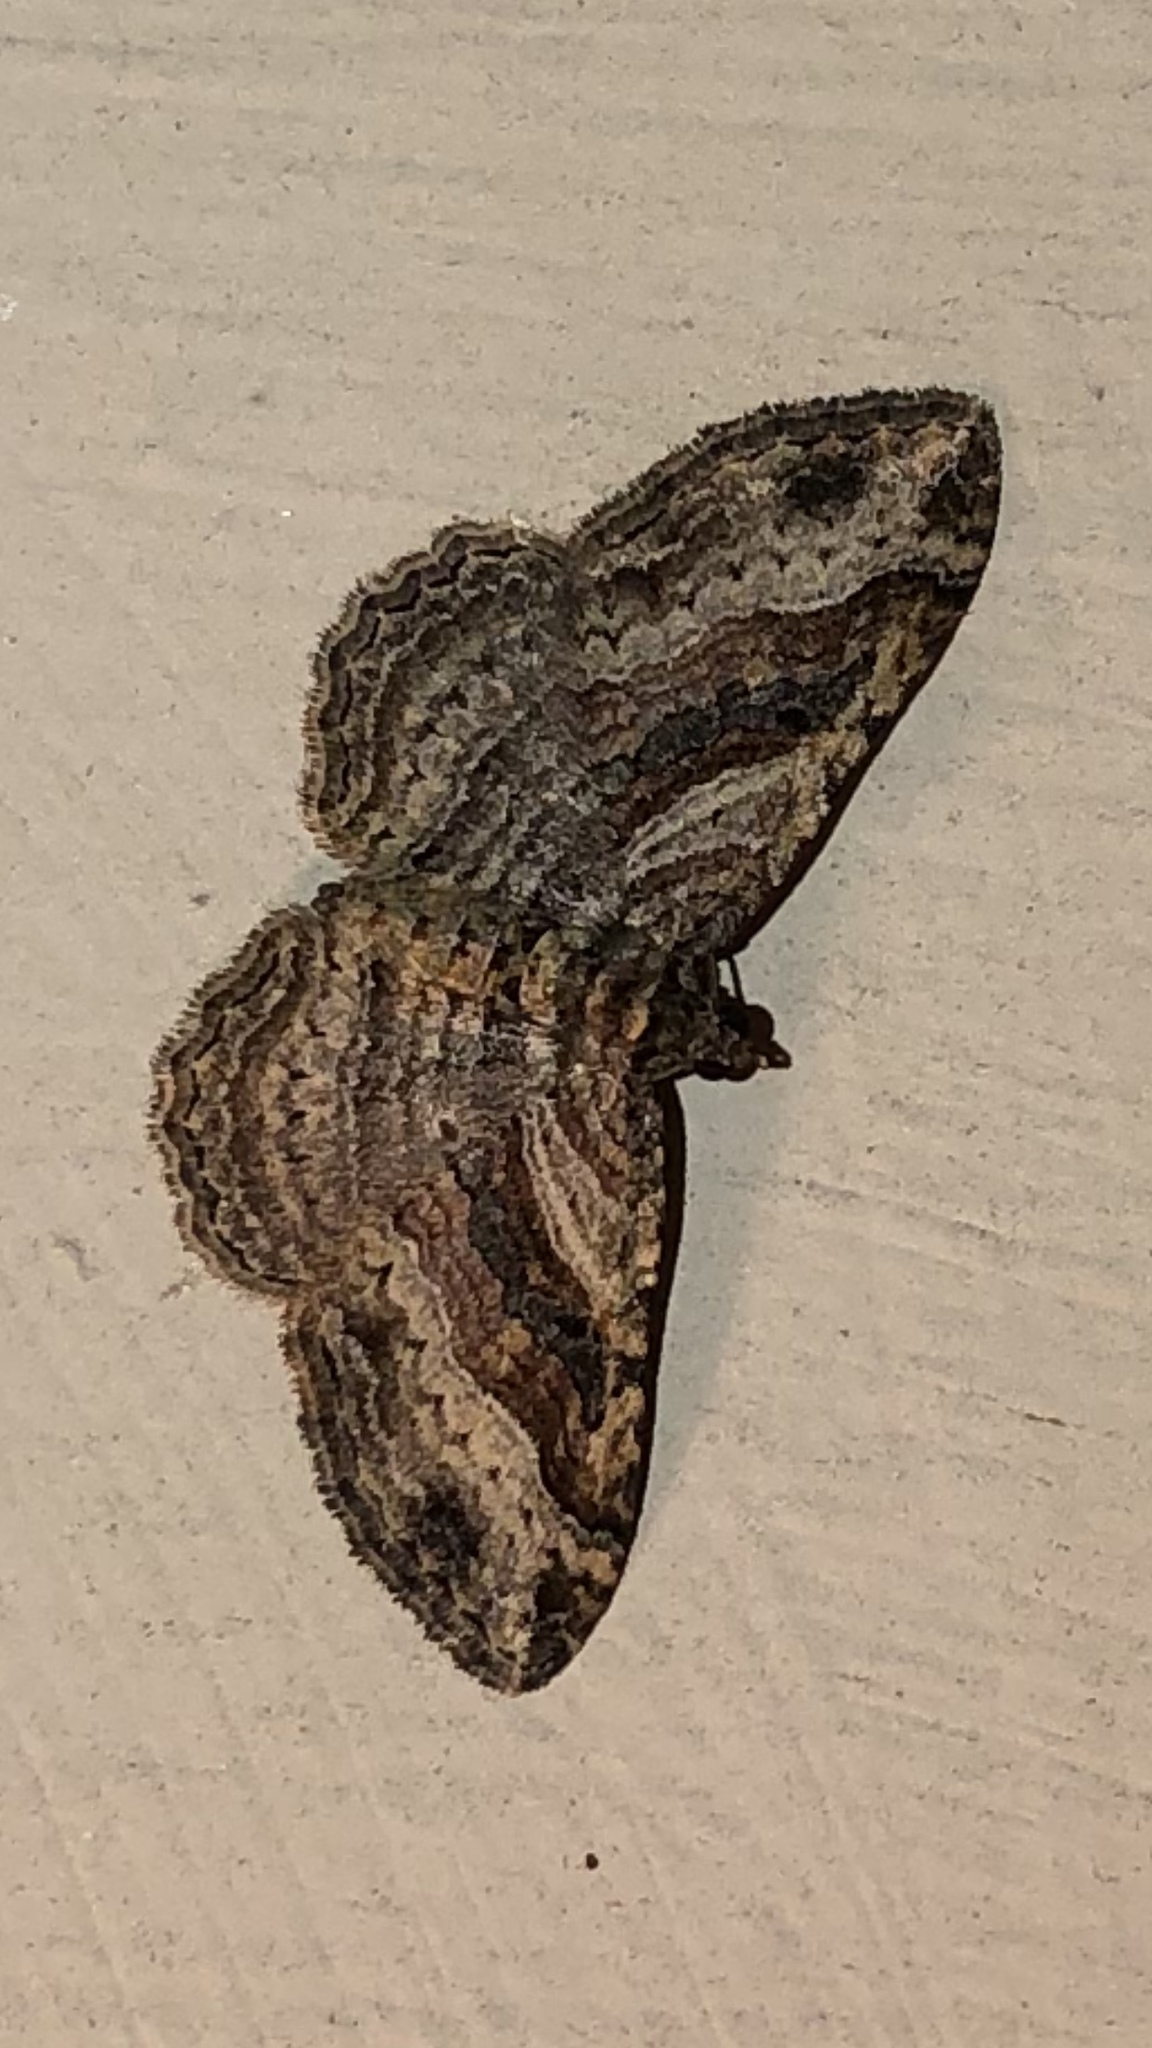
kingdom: Animalia
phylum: Arthropoda
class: Insecta
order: Lepidoptera
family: Geometridae
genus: Costaconvexa
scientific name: Costaconvexa centrostrigaria
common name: Bent-line carpet
